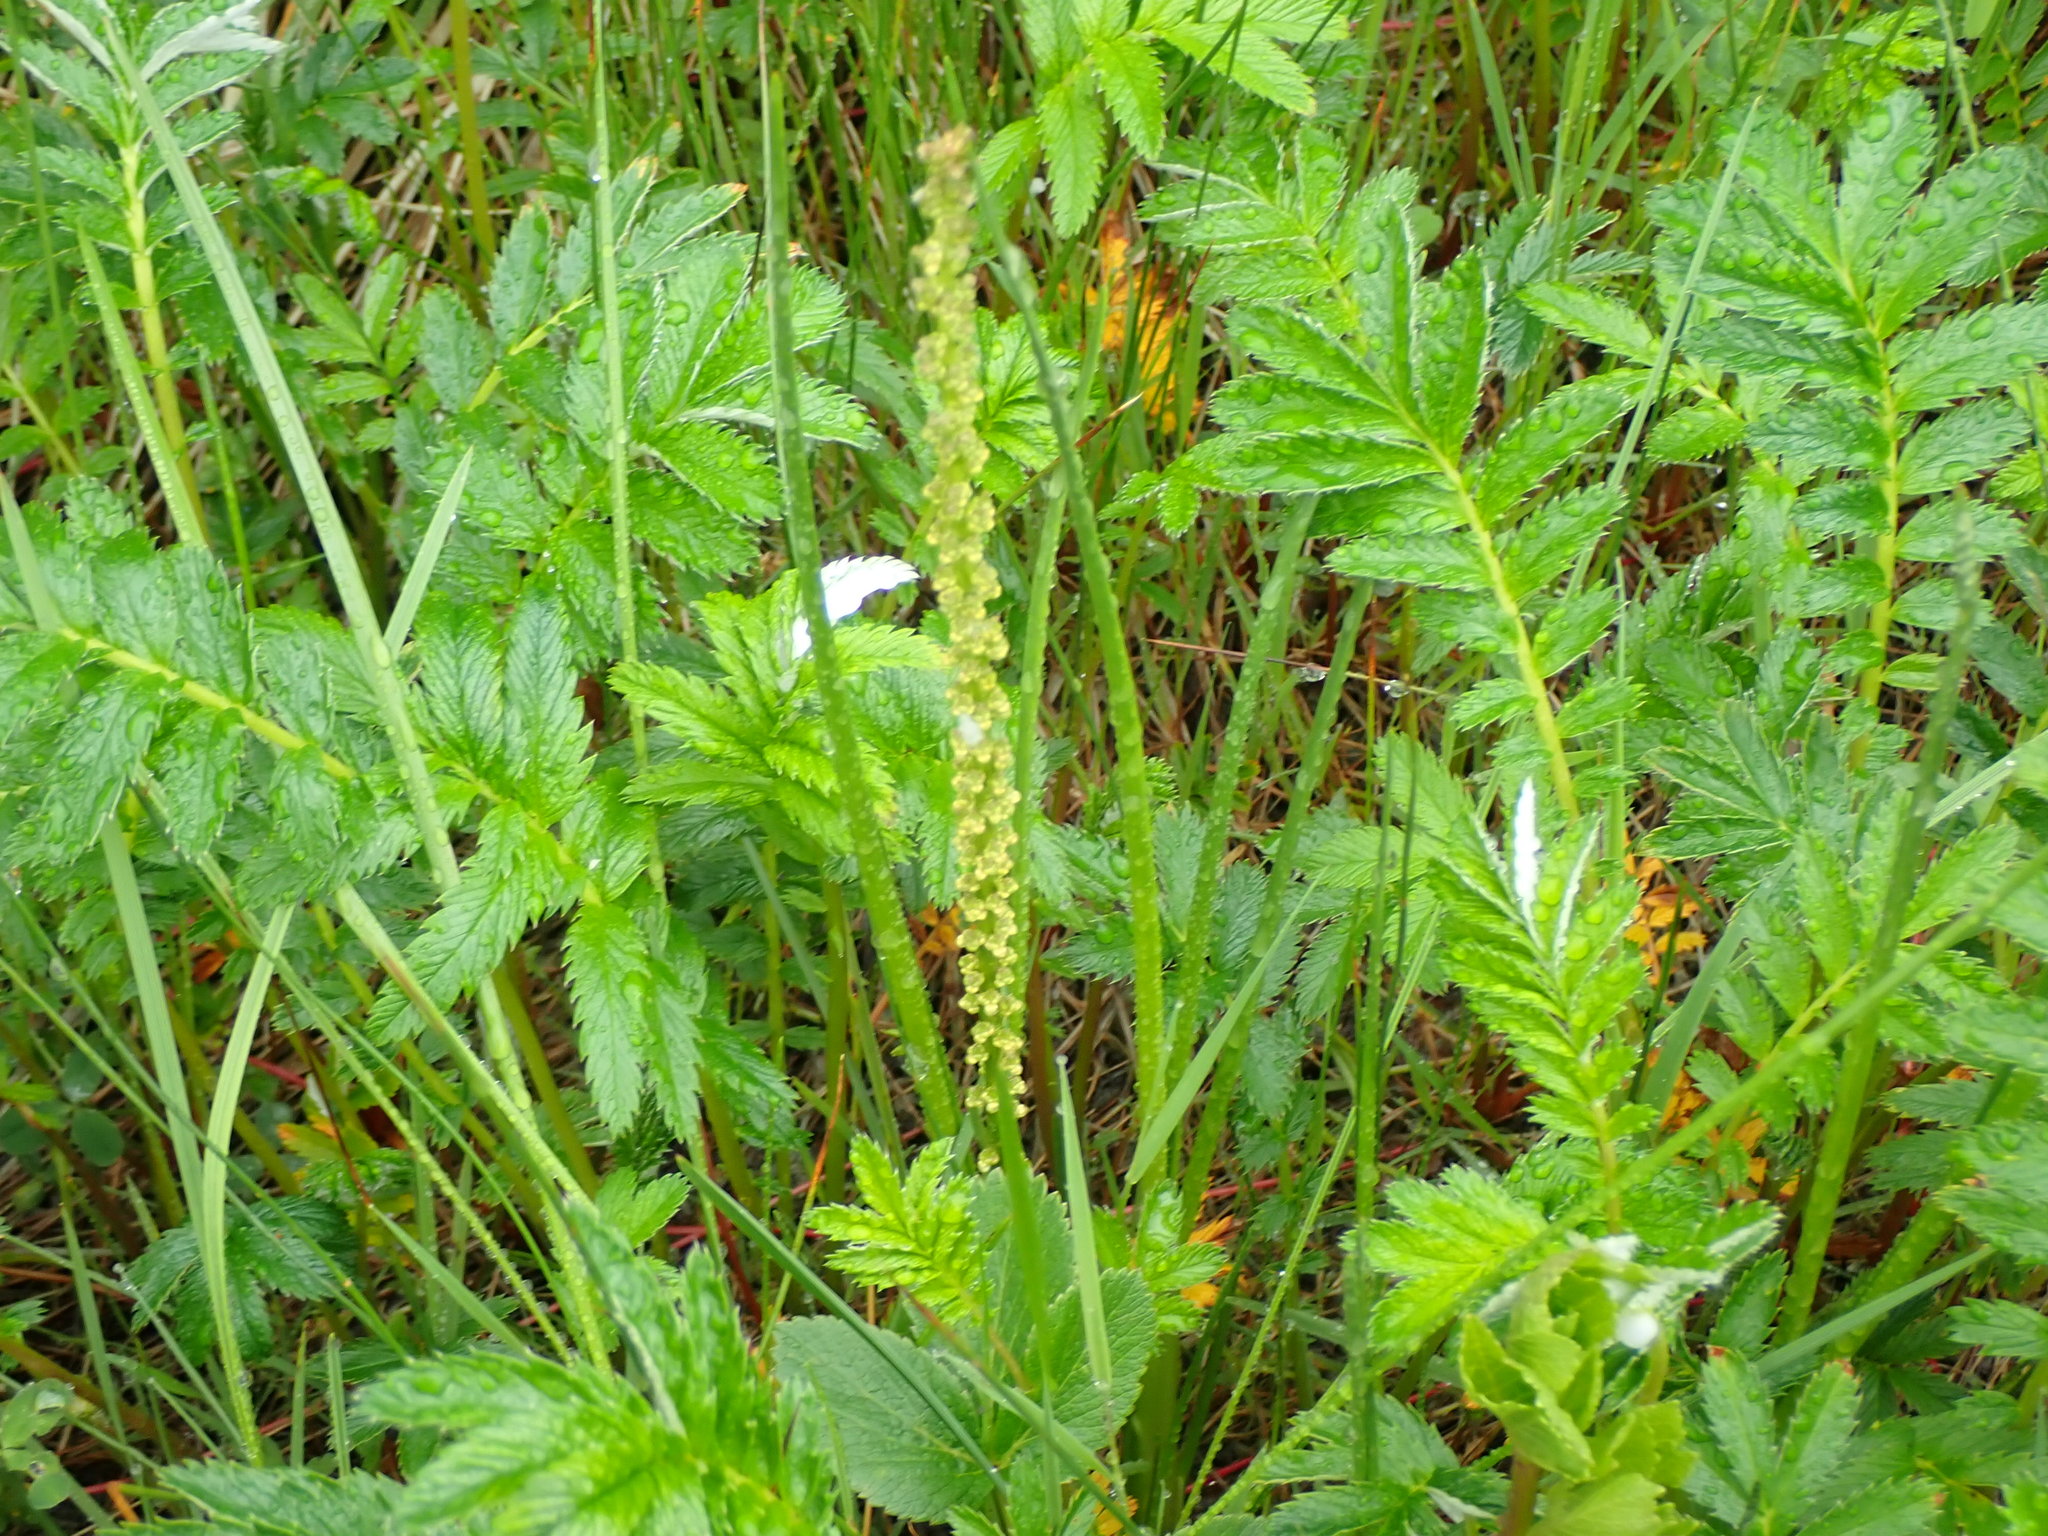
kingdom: Plantae
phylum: Tracheophyta
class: Liliopsida
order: Alismatales
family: Juncaginaceae
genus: Triglochin
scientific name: Triglochin maritima
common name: Sea arrowgrass
